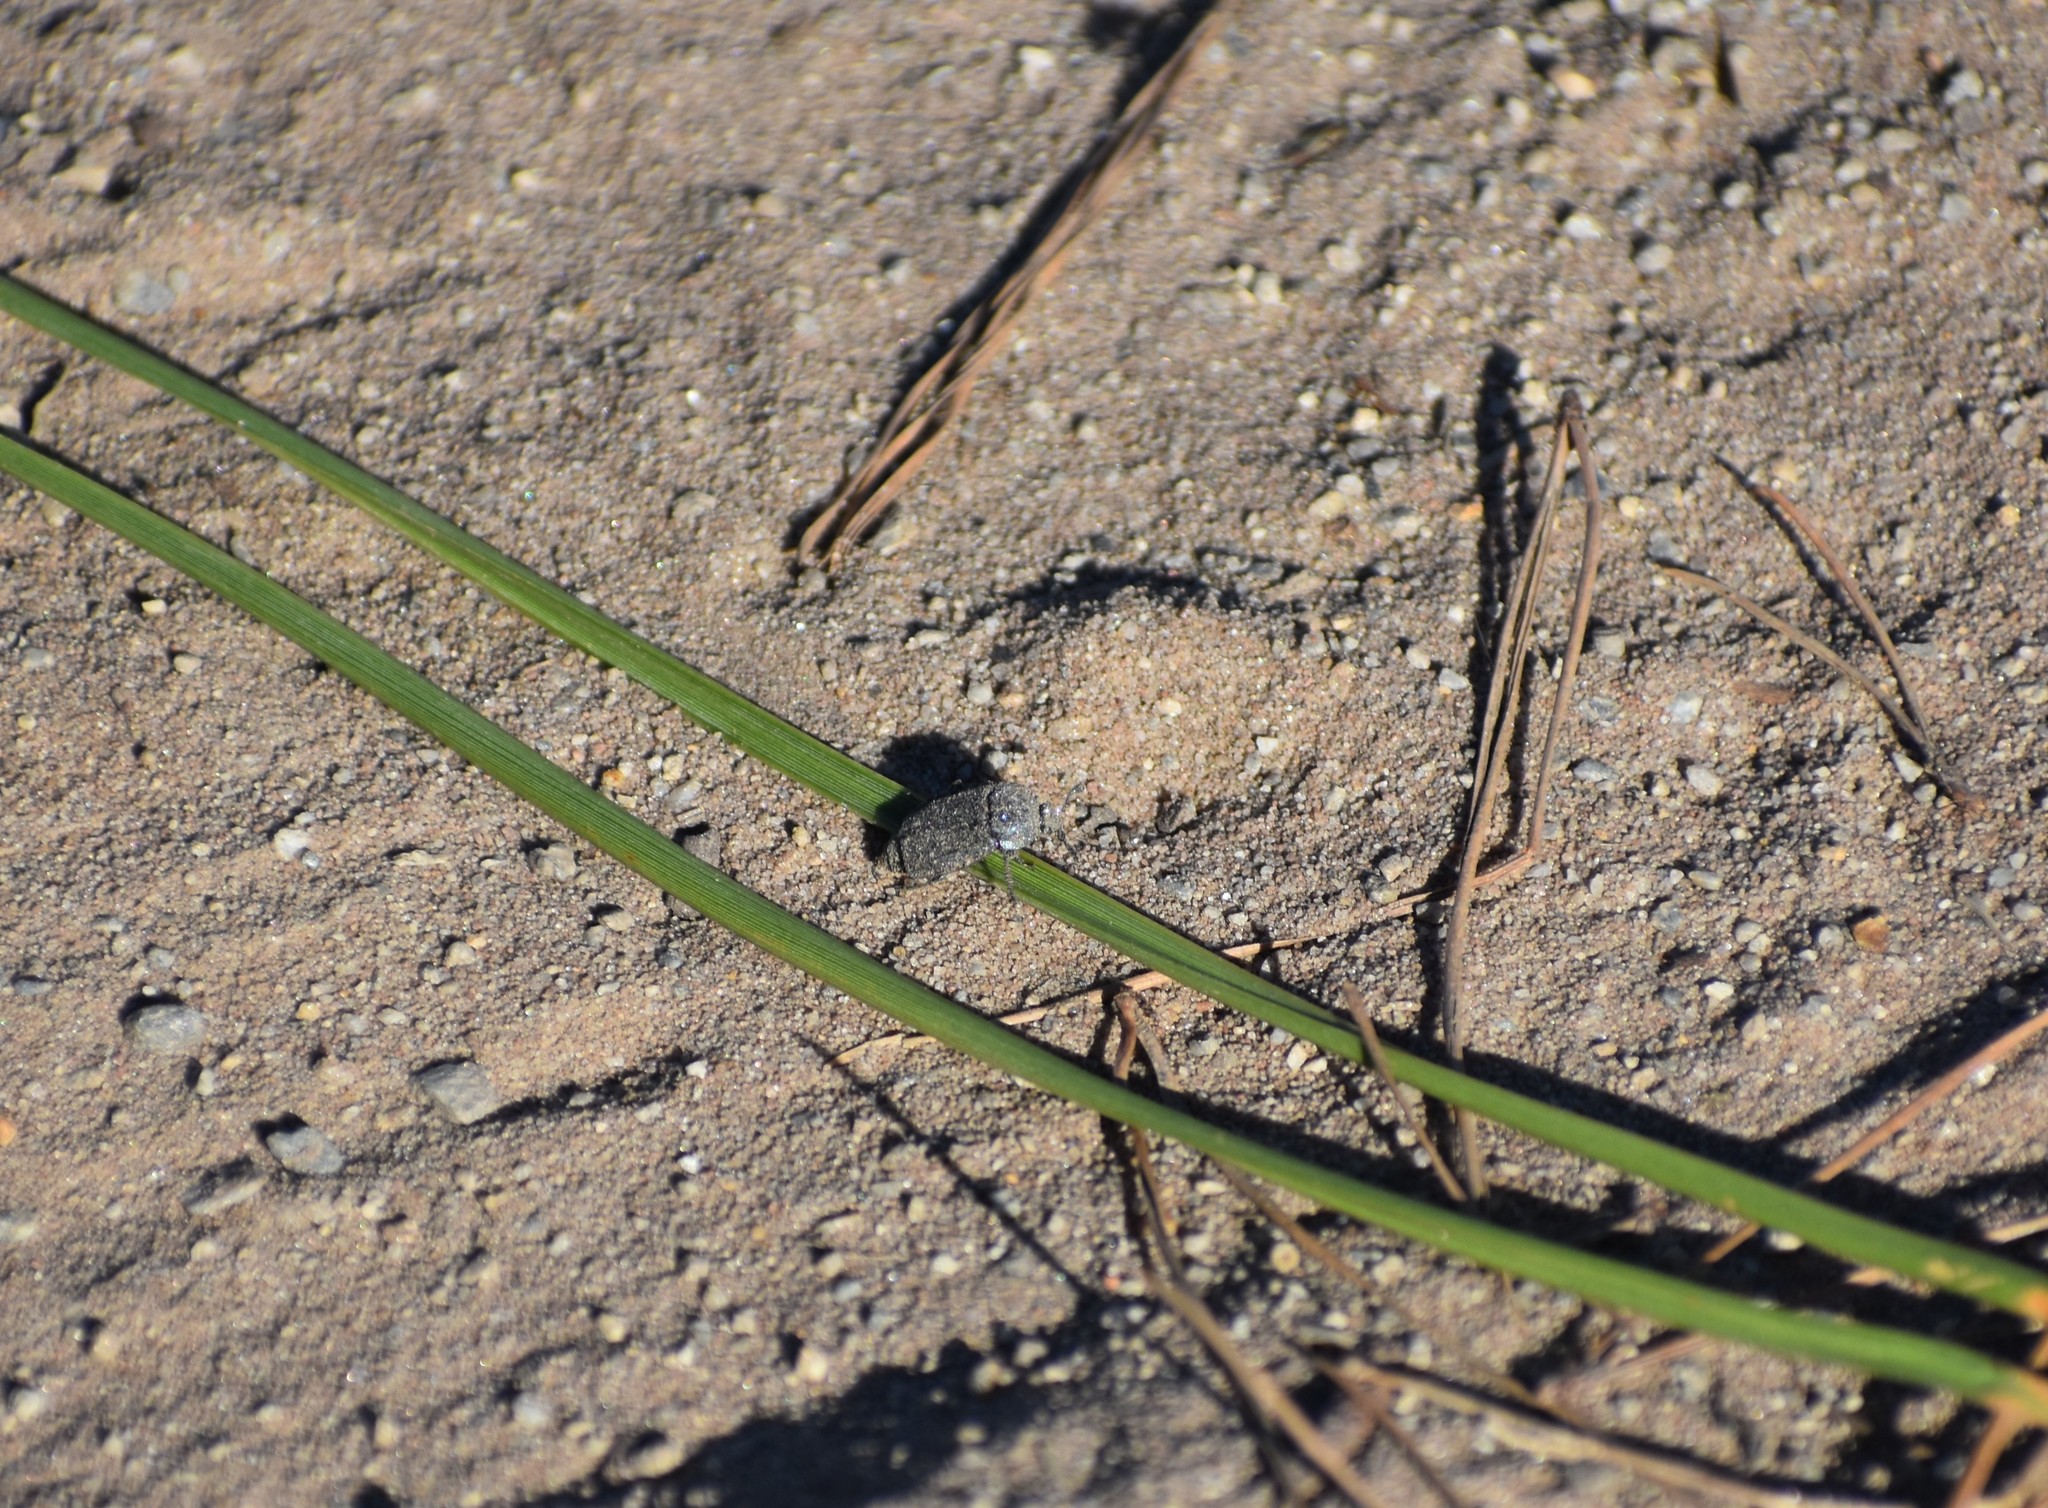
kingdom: Animalia
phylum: Arthropoda
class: Insecta
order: Coleoptera
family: Staphylinidae
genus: Thanatophilus
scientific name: Thanatophilus capensis
